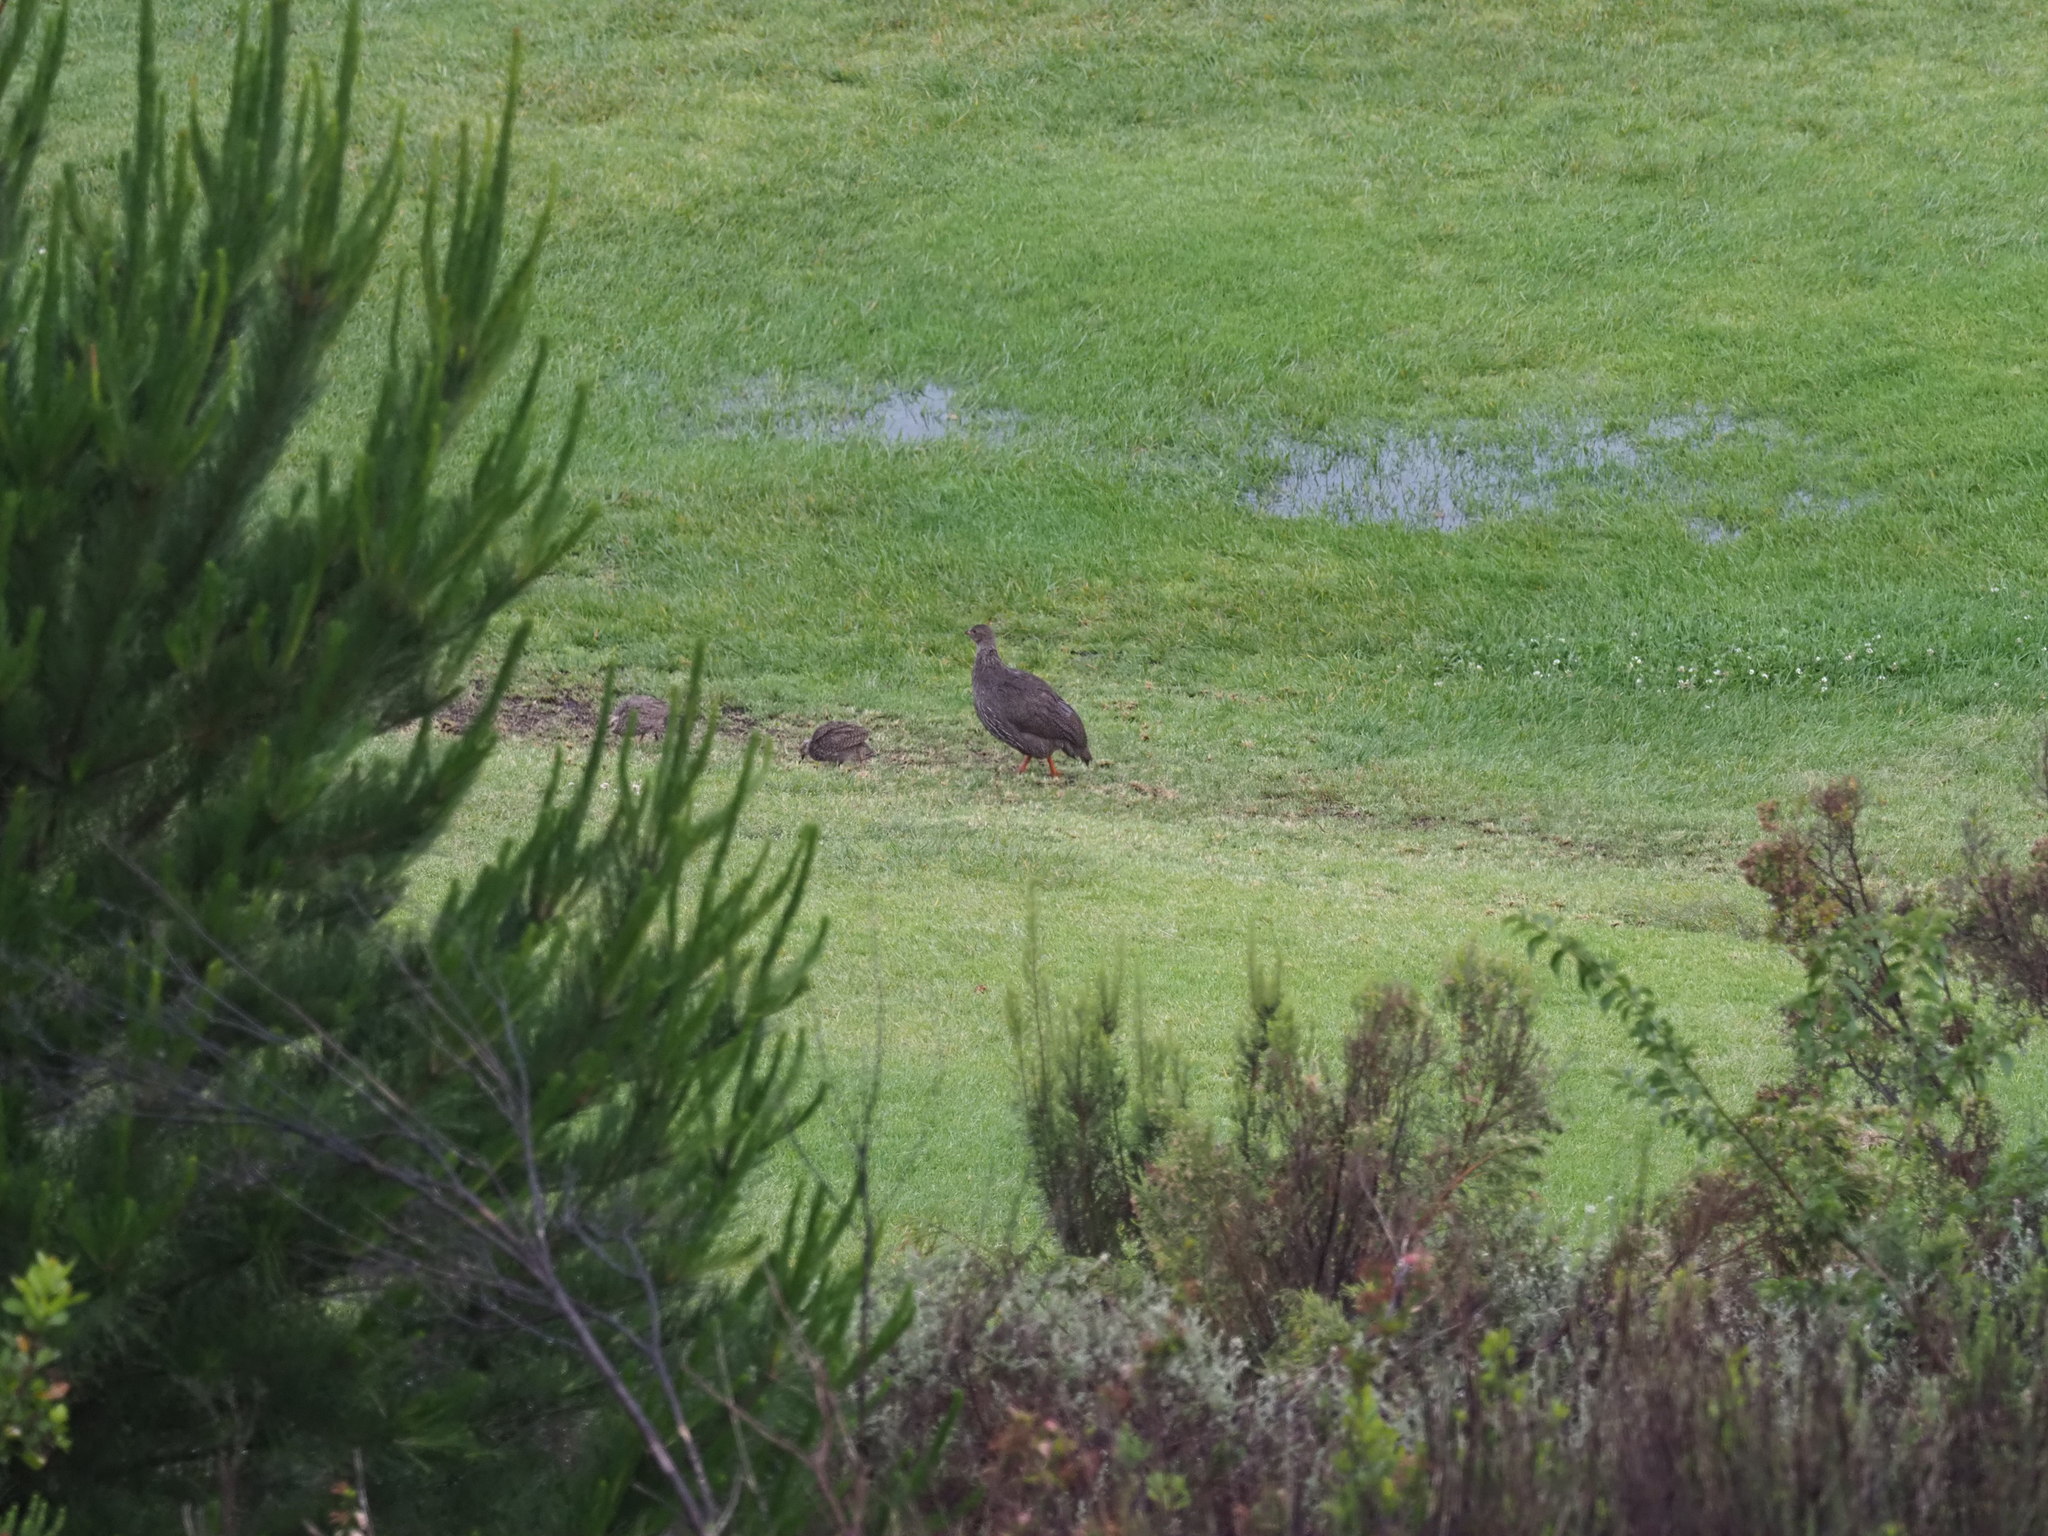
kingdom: Animalia
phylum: Chordata
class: Aves
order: Galliformes
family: Phasianidae
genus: Pternistis
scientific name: Pternistis capensis
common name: Cape spurfowl
